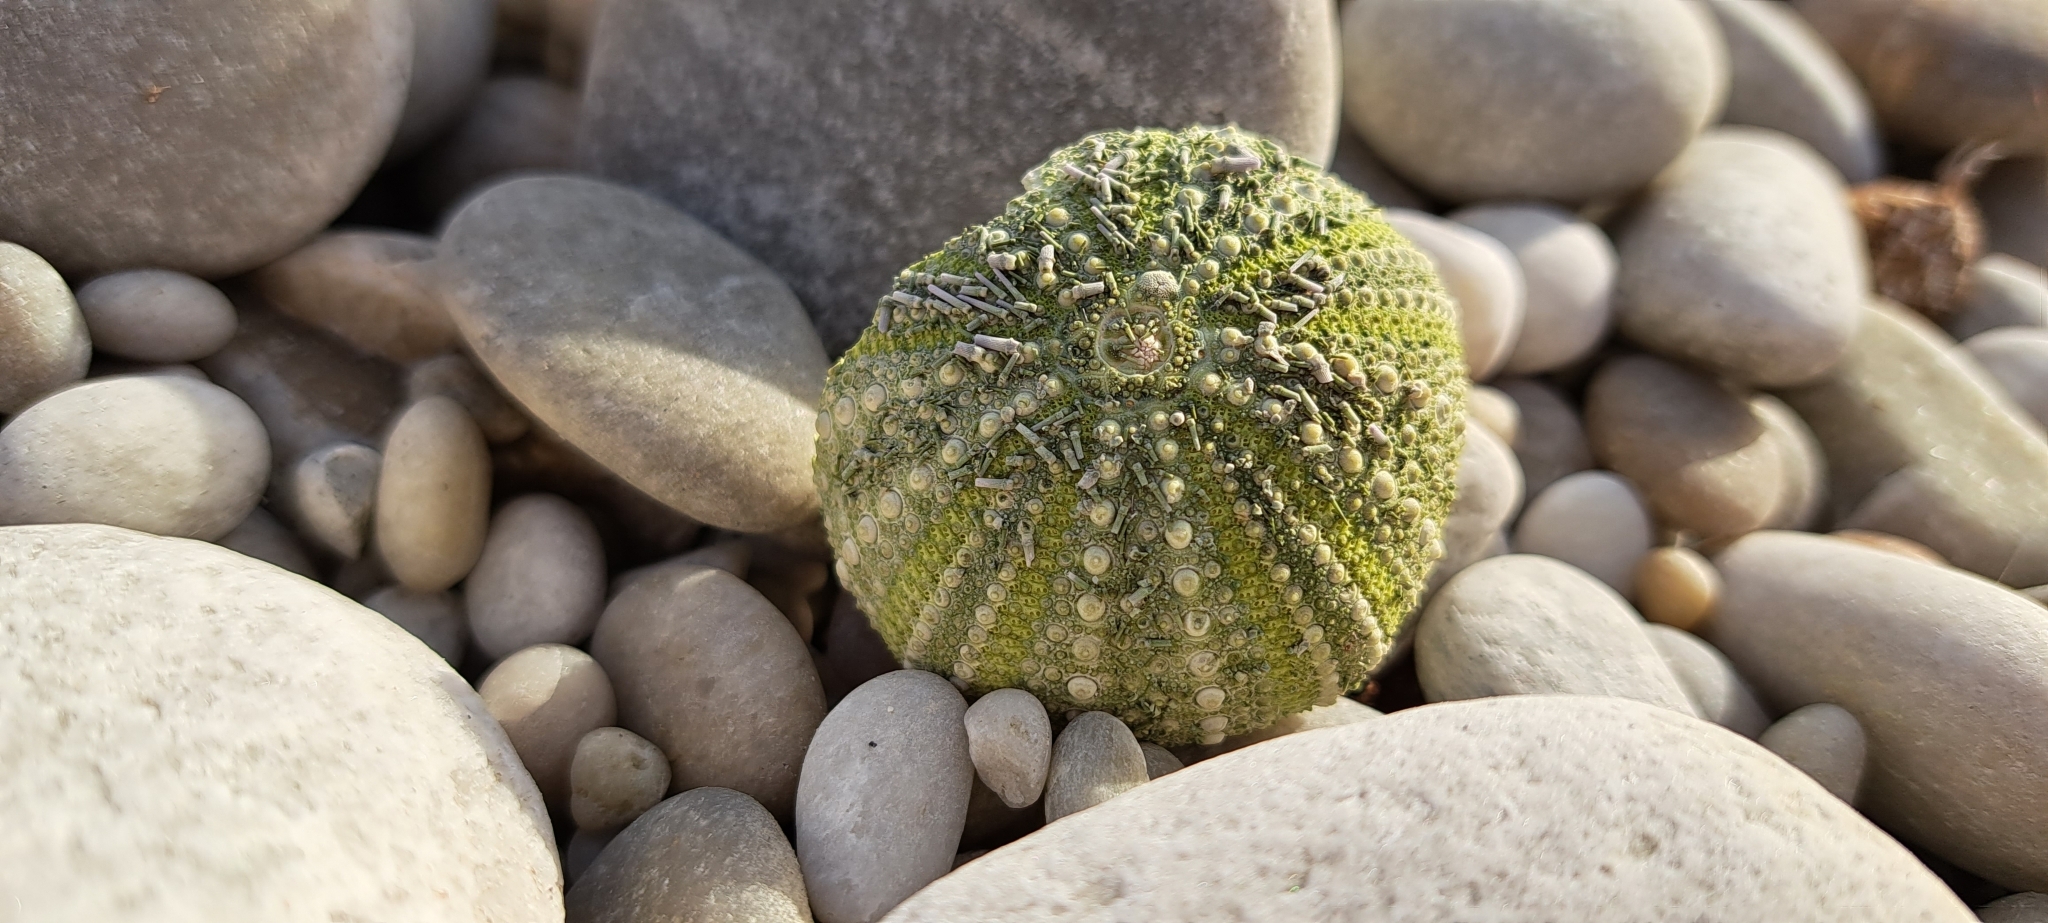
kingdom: Animalia
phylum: Echinodermata
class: Echinoidea
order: Camarodonta
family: Parechinidae
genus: Parechinus
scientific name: Parechinus angulosus
